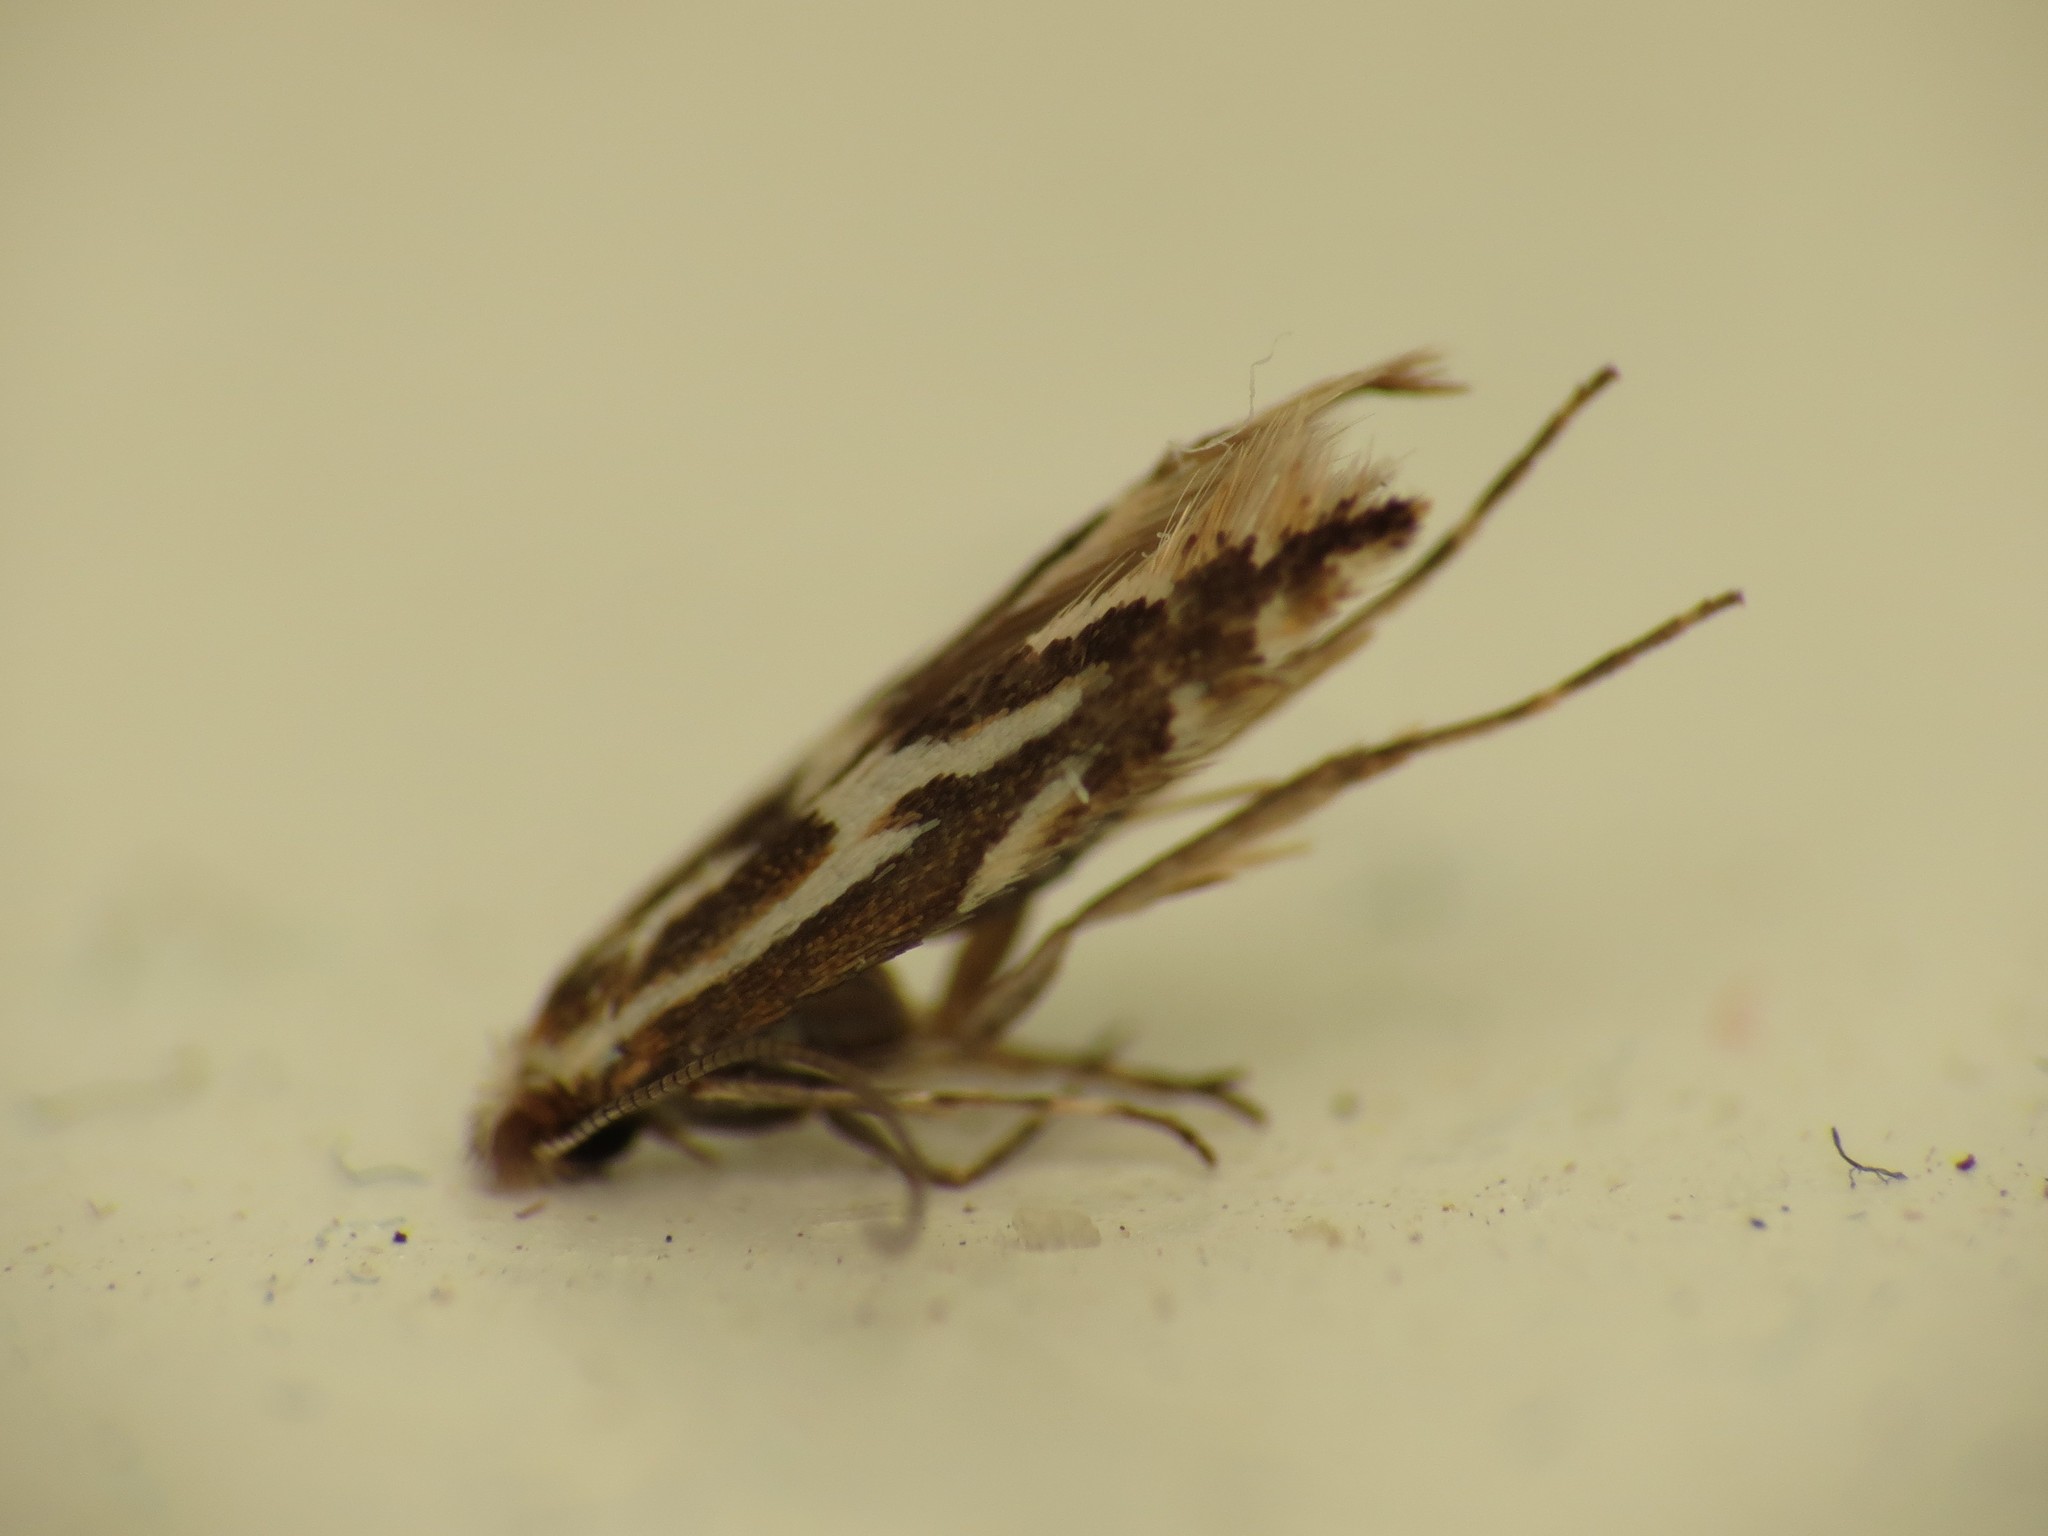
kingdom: Animalia
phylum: Arthropoda
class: Insecta
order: Lepidoptera
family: Gracillariidae
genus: Phyllonorycter
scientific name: Phyllonorycter blancardella
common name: Brown apple midget
